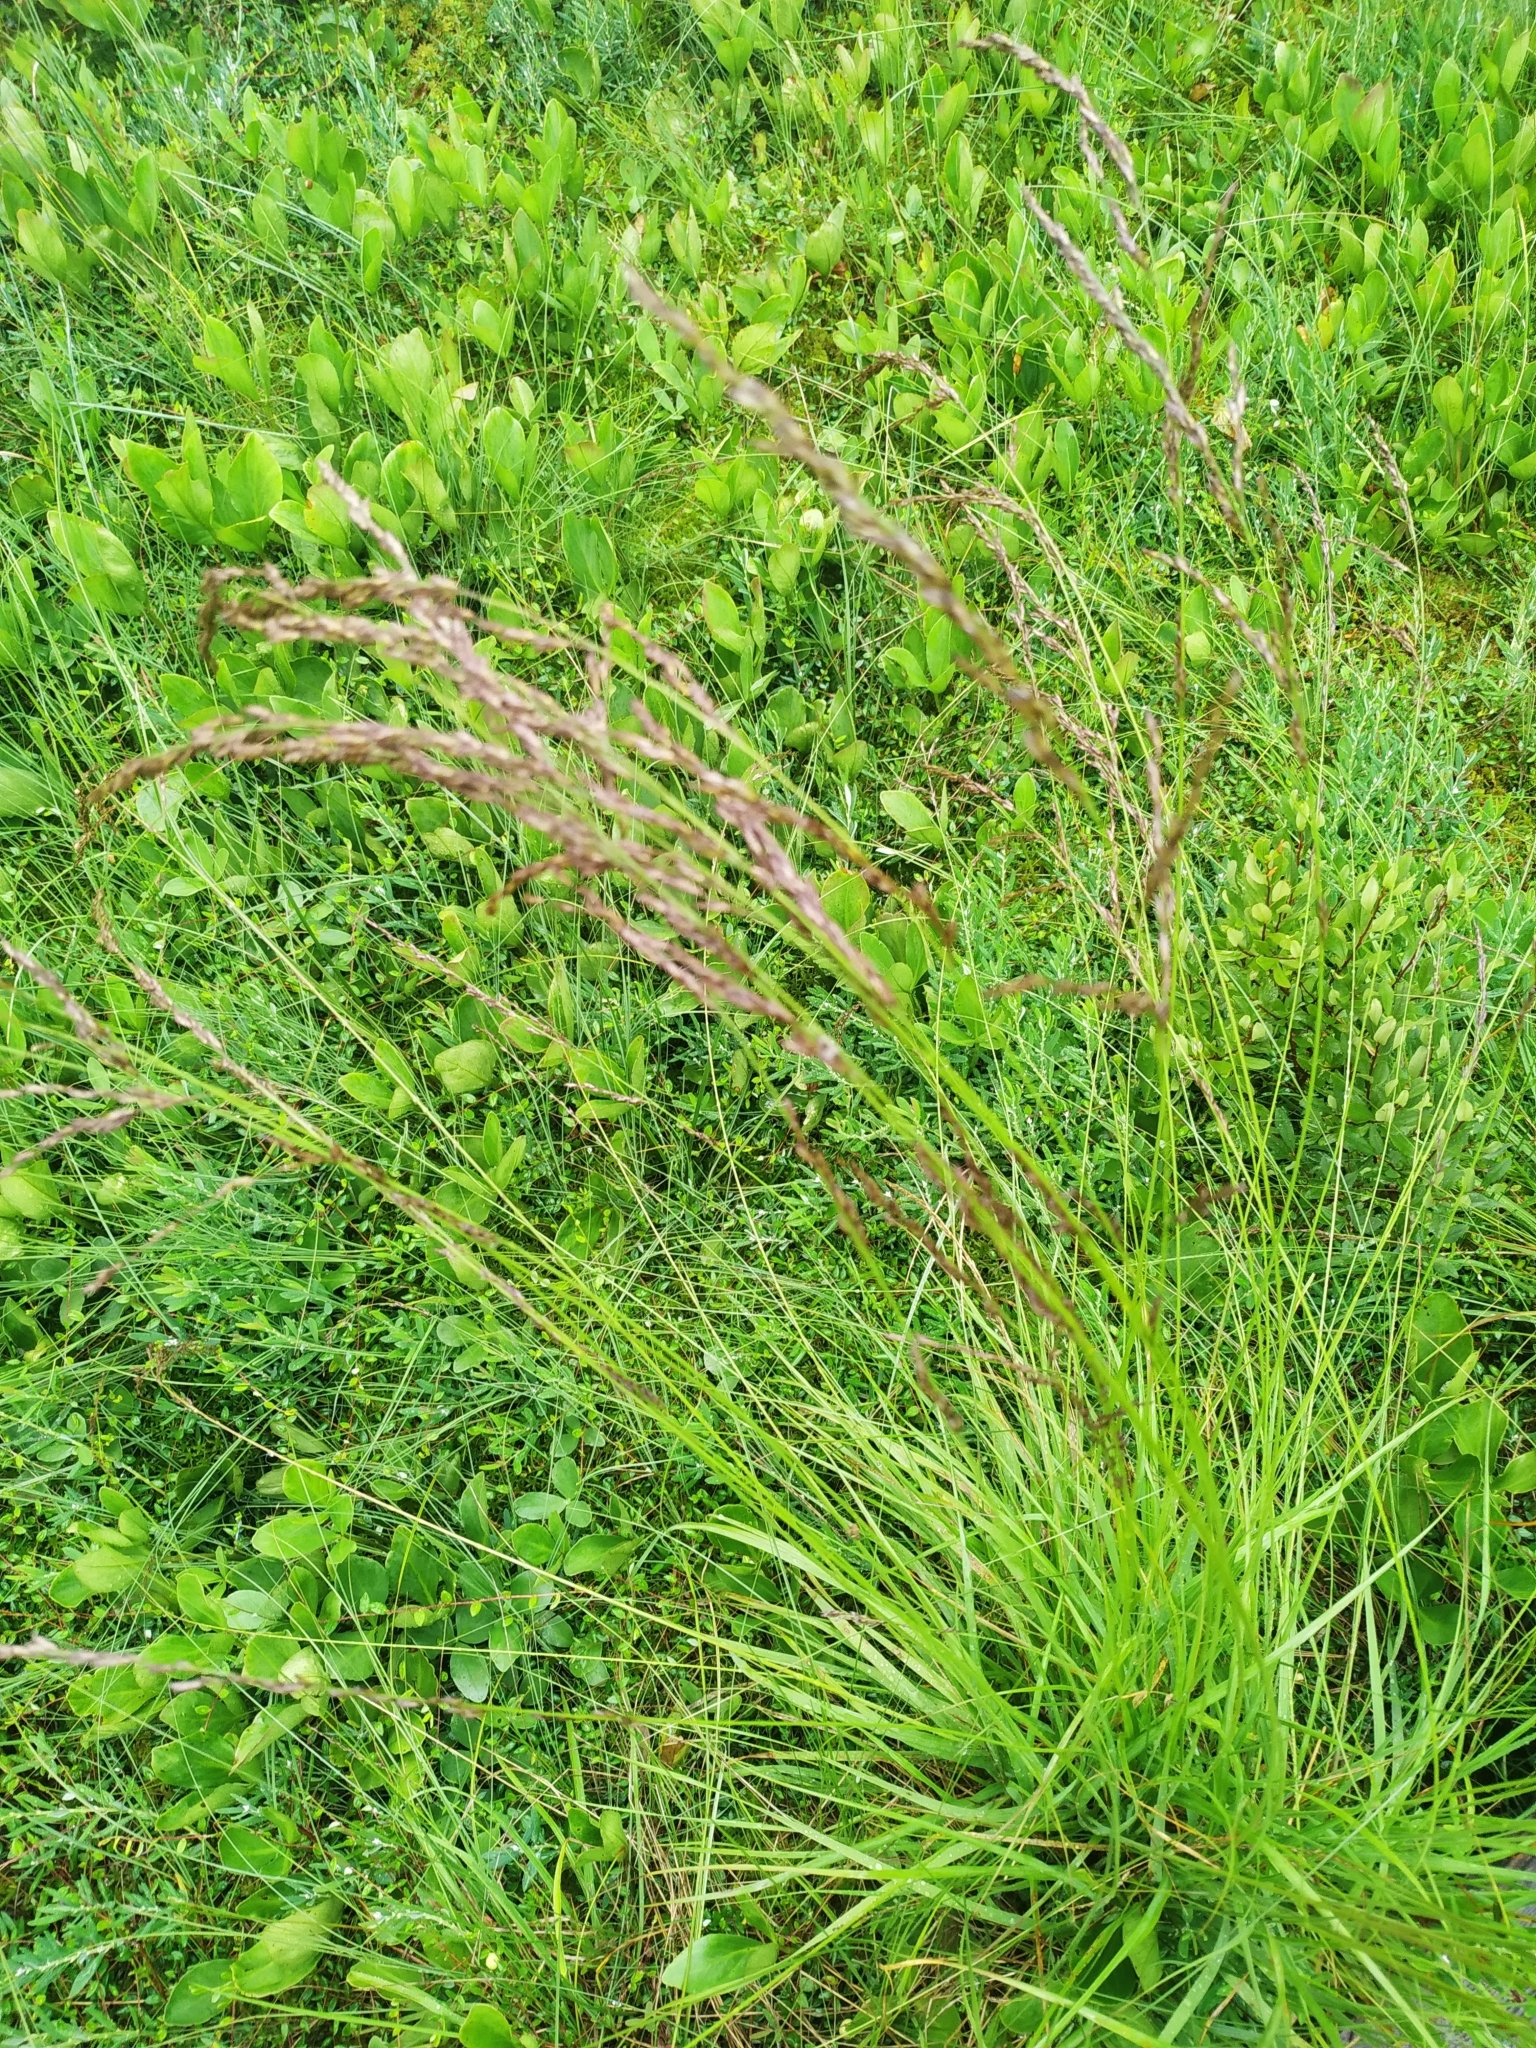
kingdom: Plantae
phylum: Tracheophyta
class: Liliopsida
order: Poales
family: Poaceae
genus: Molinia
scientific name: Molinia caerulea
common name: Purple moor-grass
